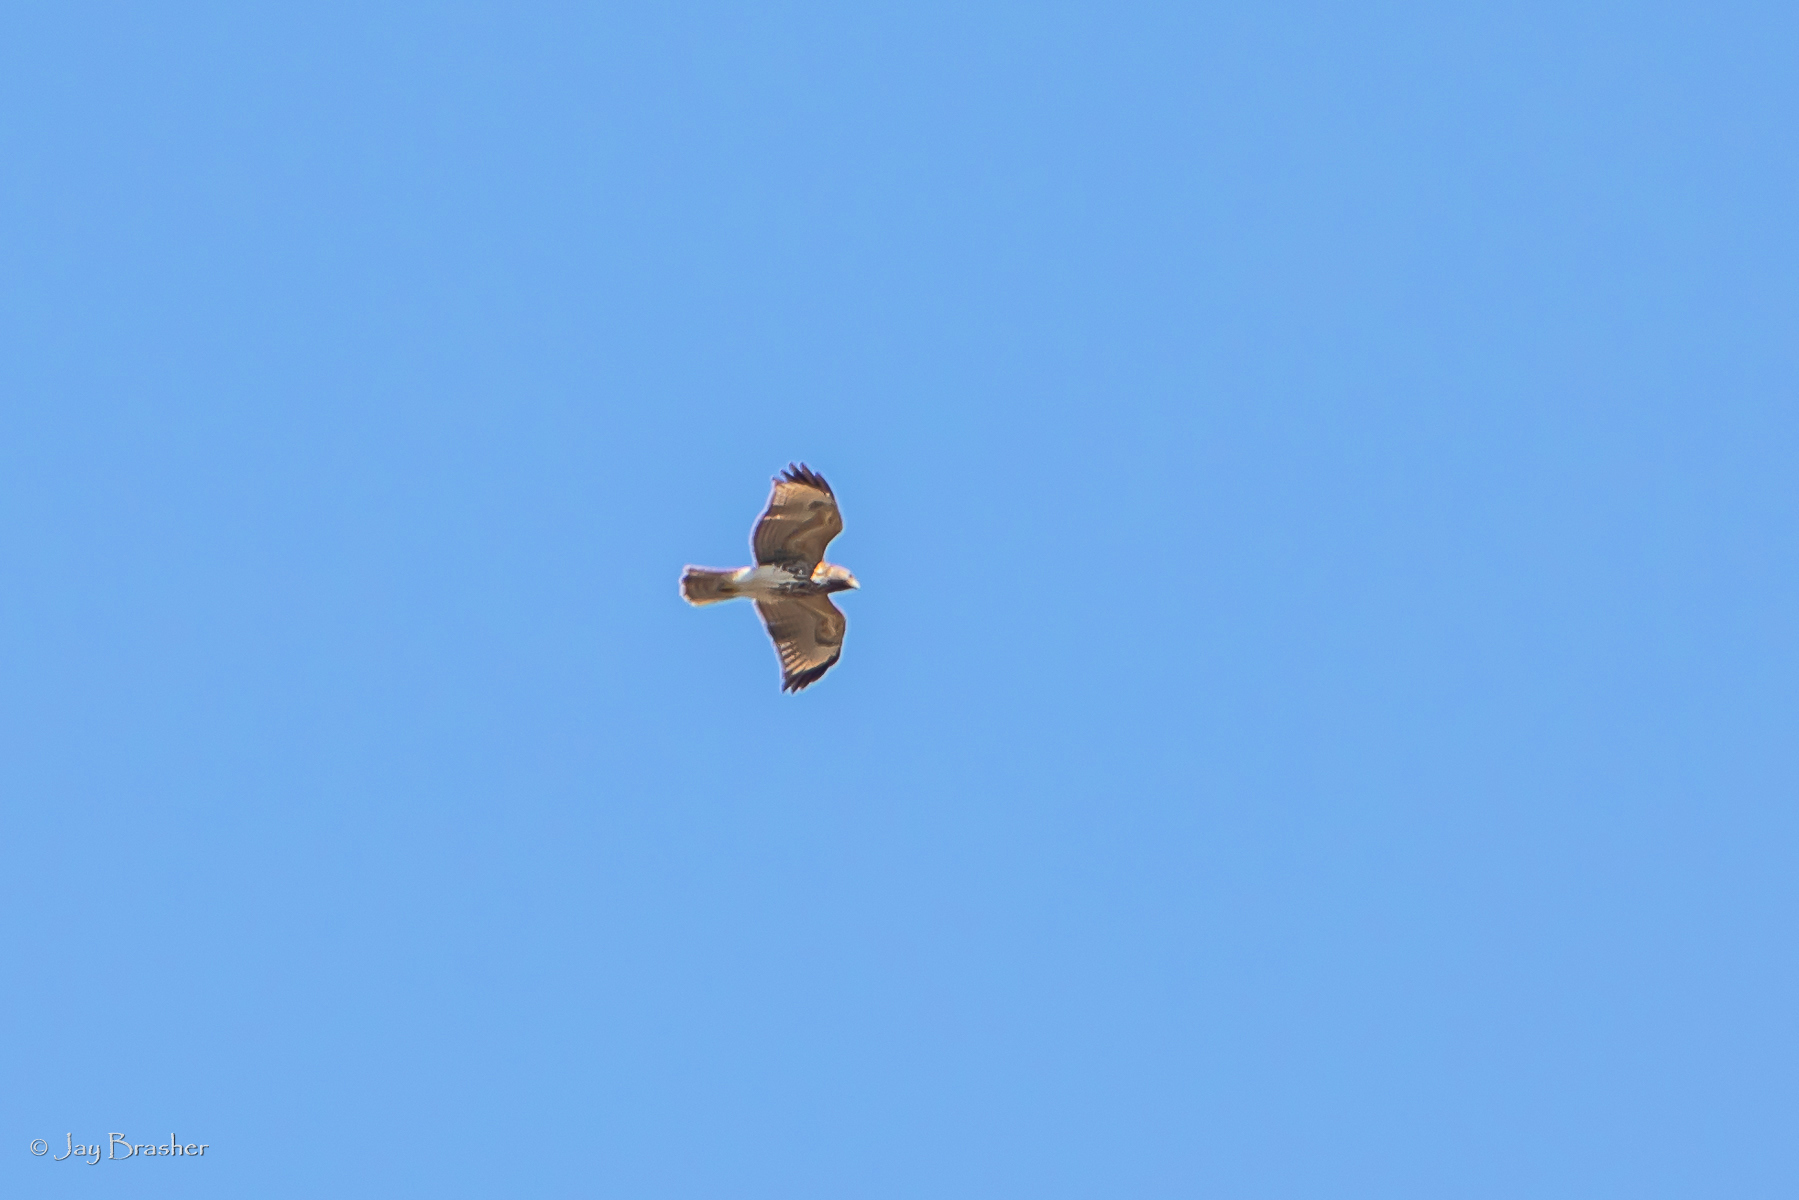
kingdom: Animalia
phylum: Chordata
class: Aves
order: Accipitriformes
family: Accipitridae
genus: Buteo
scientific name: Buteo lineatus
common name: Red-shouldered hawk
